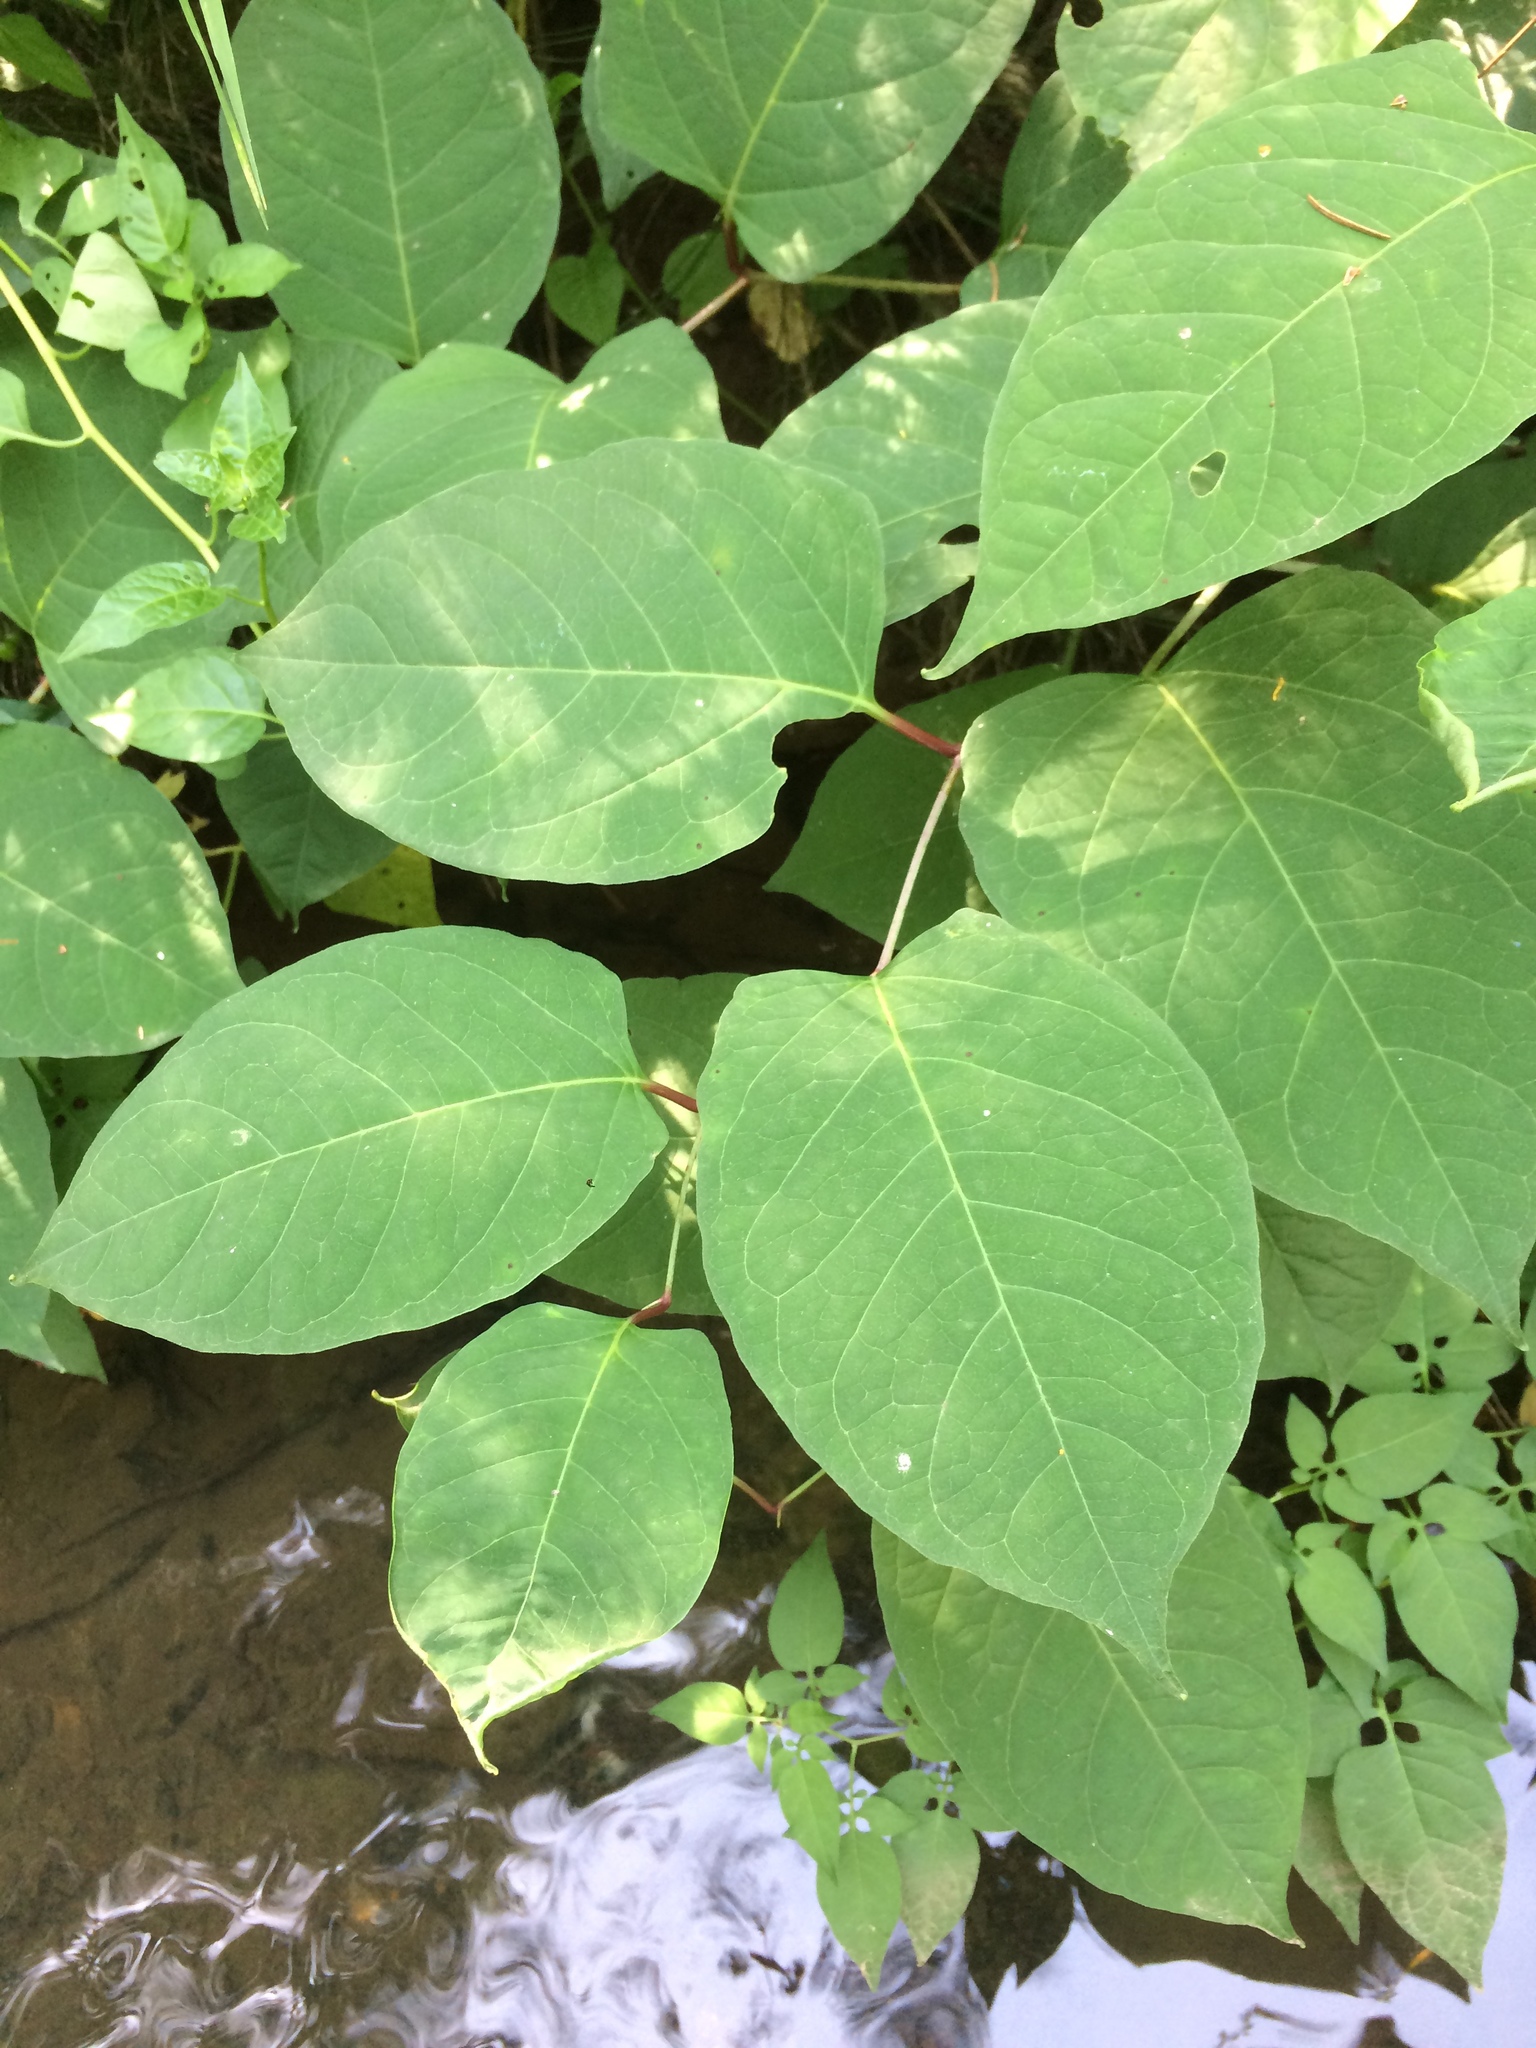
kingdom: Plantae
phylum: Tracheophyta
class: Magnoliopsida
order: Caryophyllales
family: Polygonaceae
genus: Reynoutria
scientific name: Reynoutria japonica
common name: Japanese knotweed
